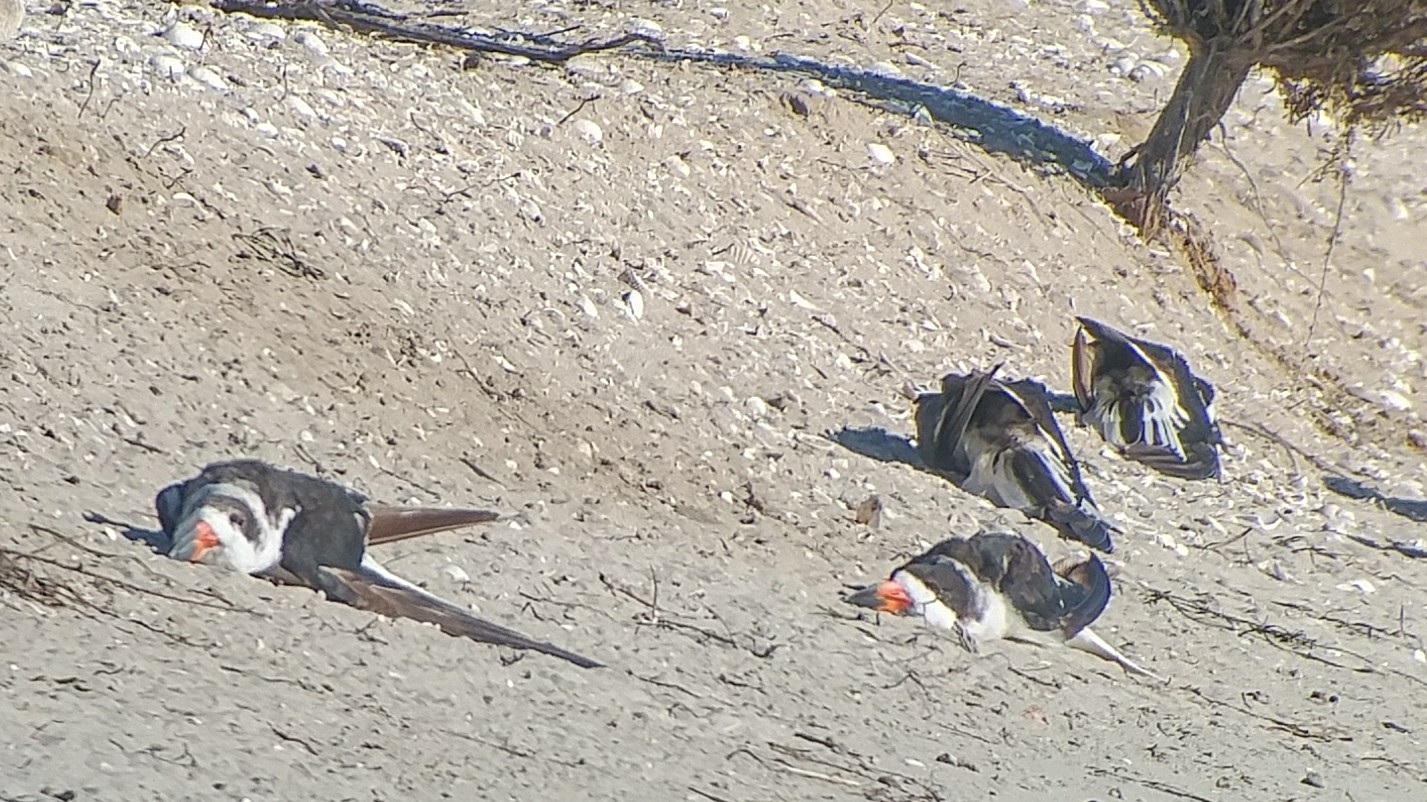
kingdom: Animalia
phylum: Chordata
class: Aves
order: Charadriiformes
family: Laridae
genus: Rynchops
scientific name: Rynchops niger
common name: Black skimmer
